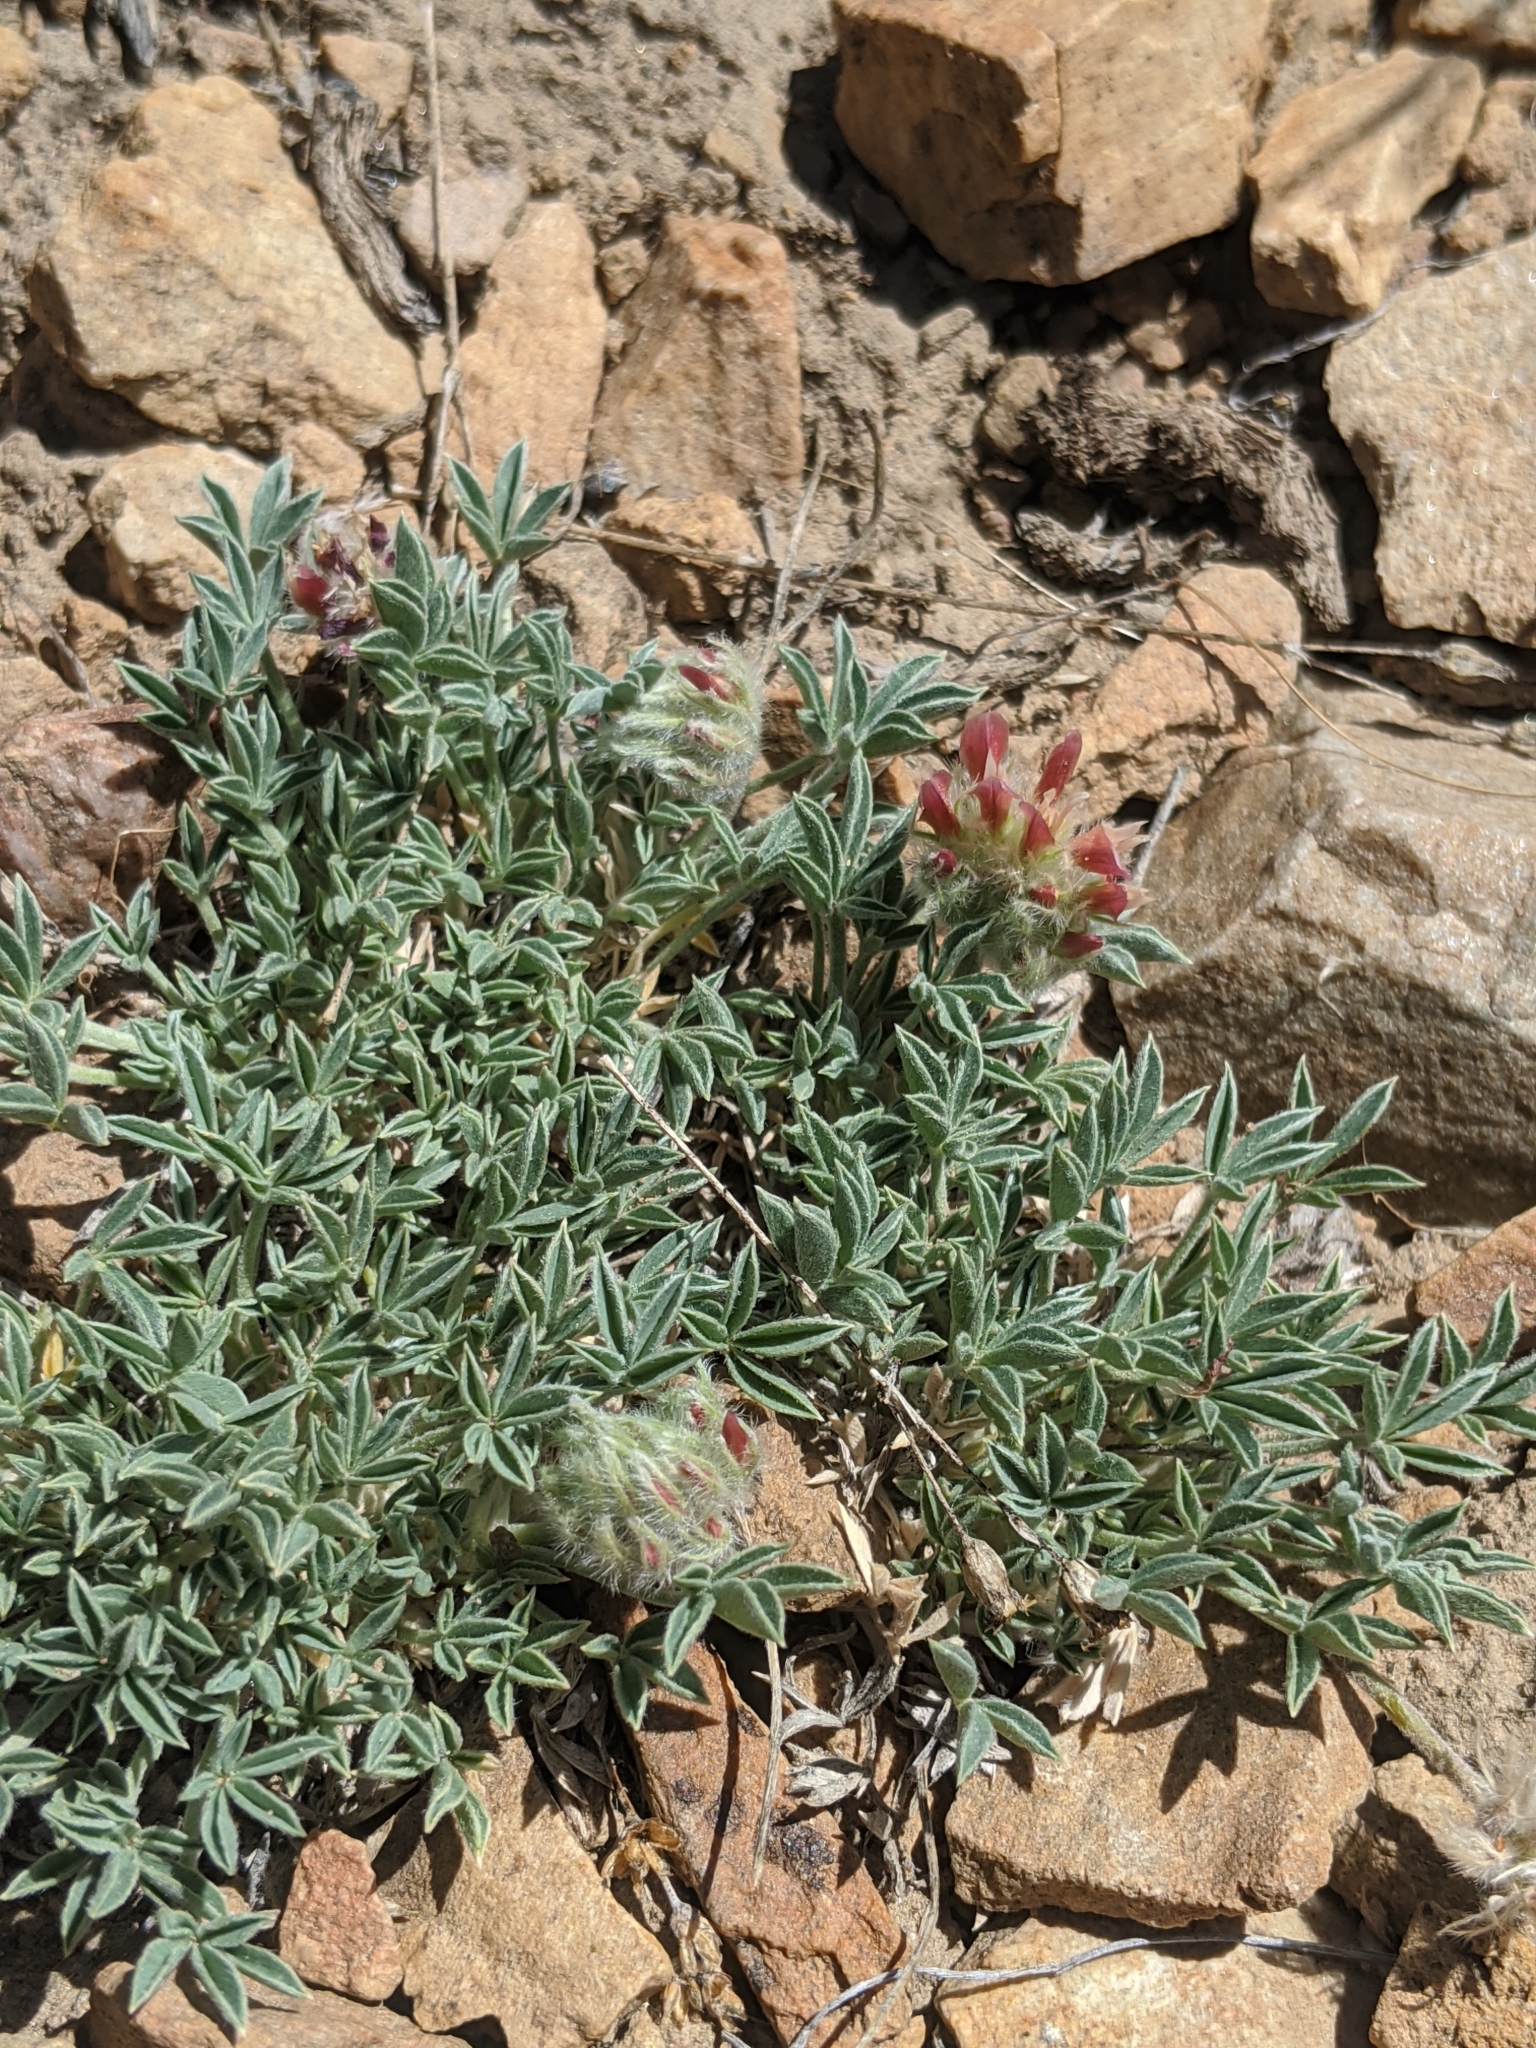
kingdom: Plantae
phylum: Tracheophyta
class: Magnoliopsida
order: Fabales
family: Fabaceae
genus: Trifolium
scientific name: Trifolium andersonii
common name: Anderson's clover
